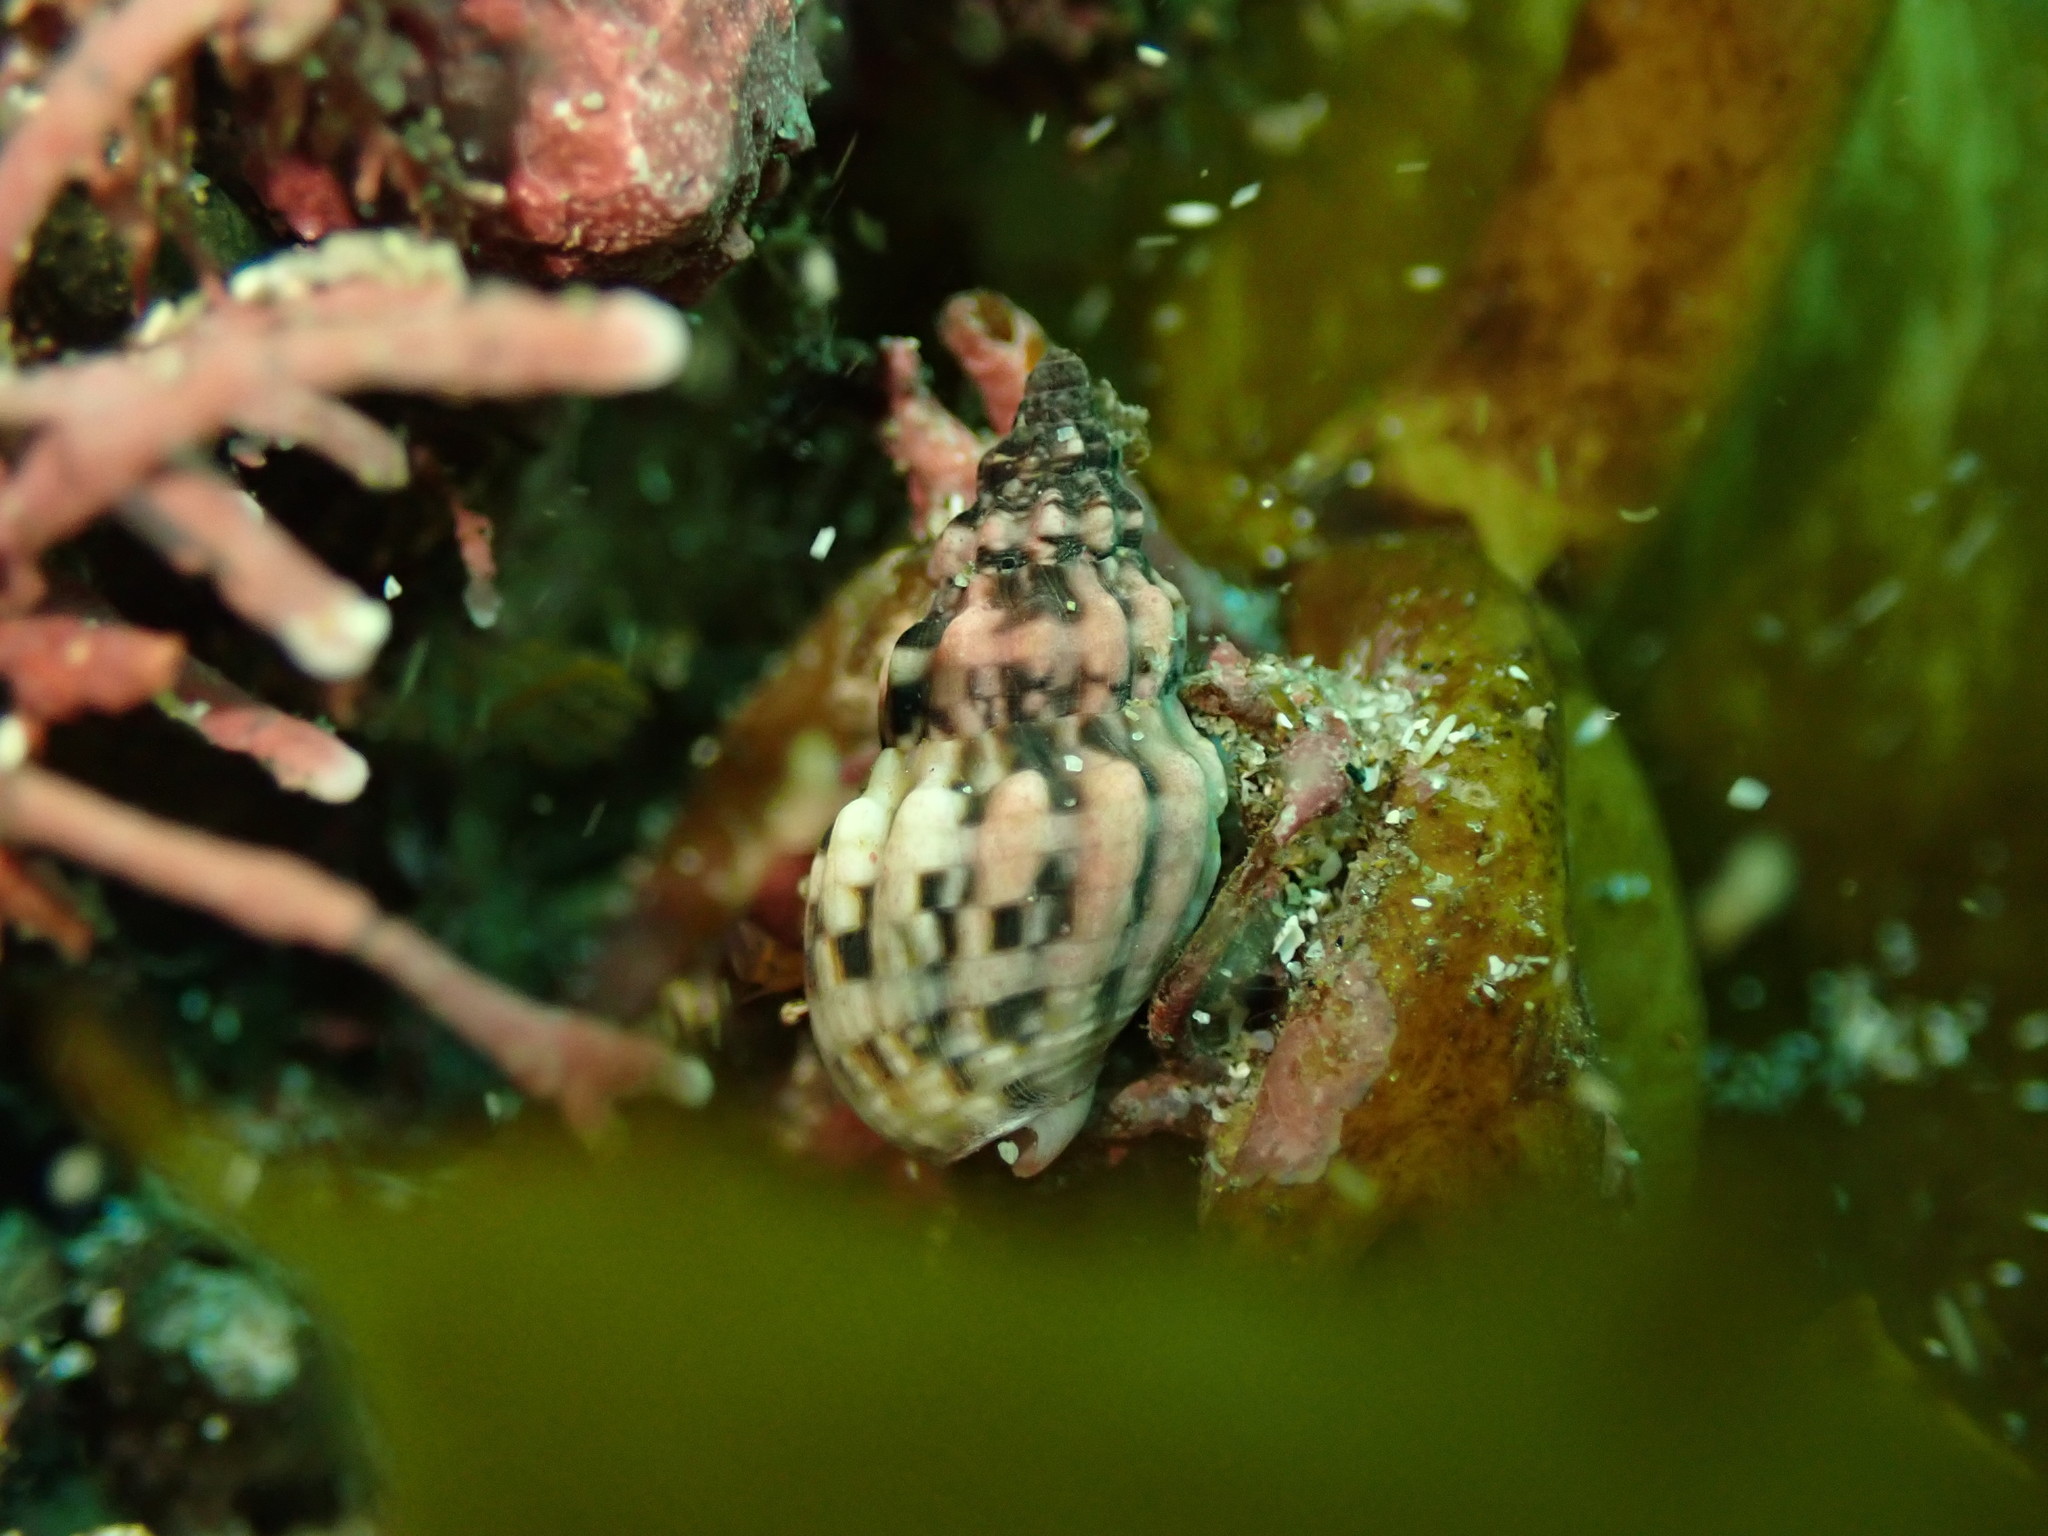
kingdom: Animalia
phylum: Mollusca
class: Gastropoda
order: Neogastropoda
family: Cominellidae
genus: Cominella
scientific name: Cominella quoyana
